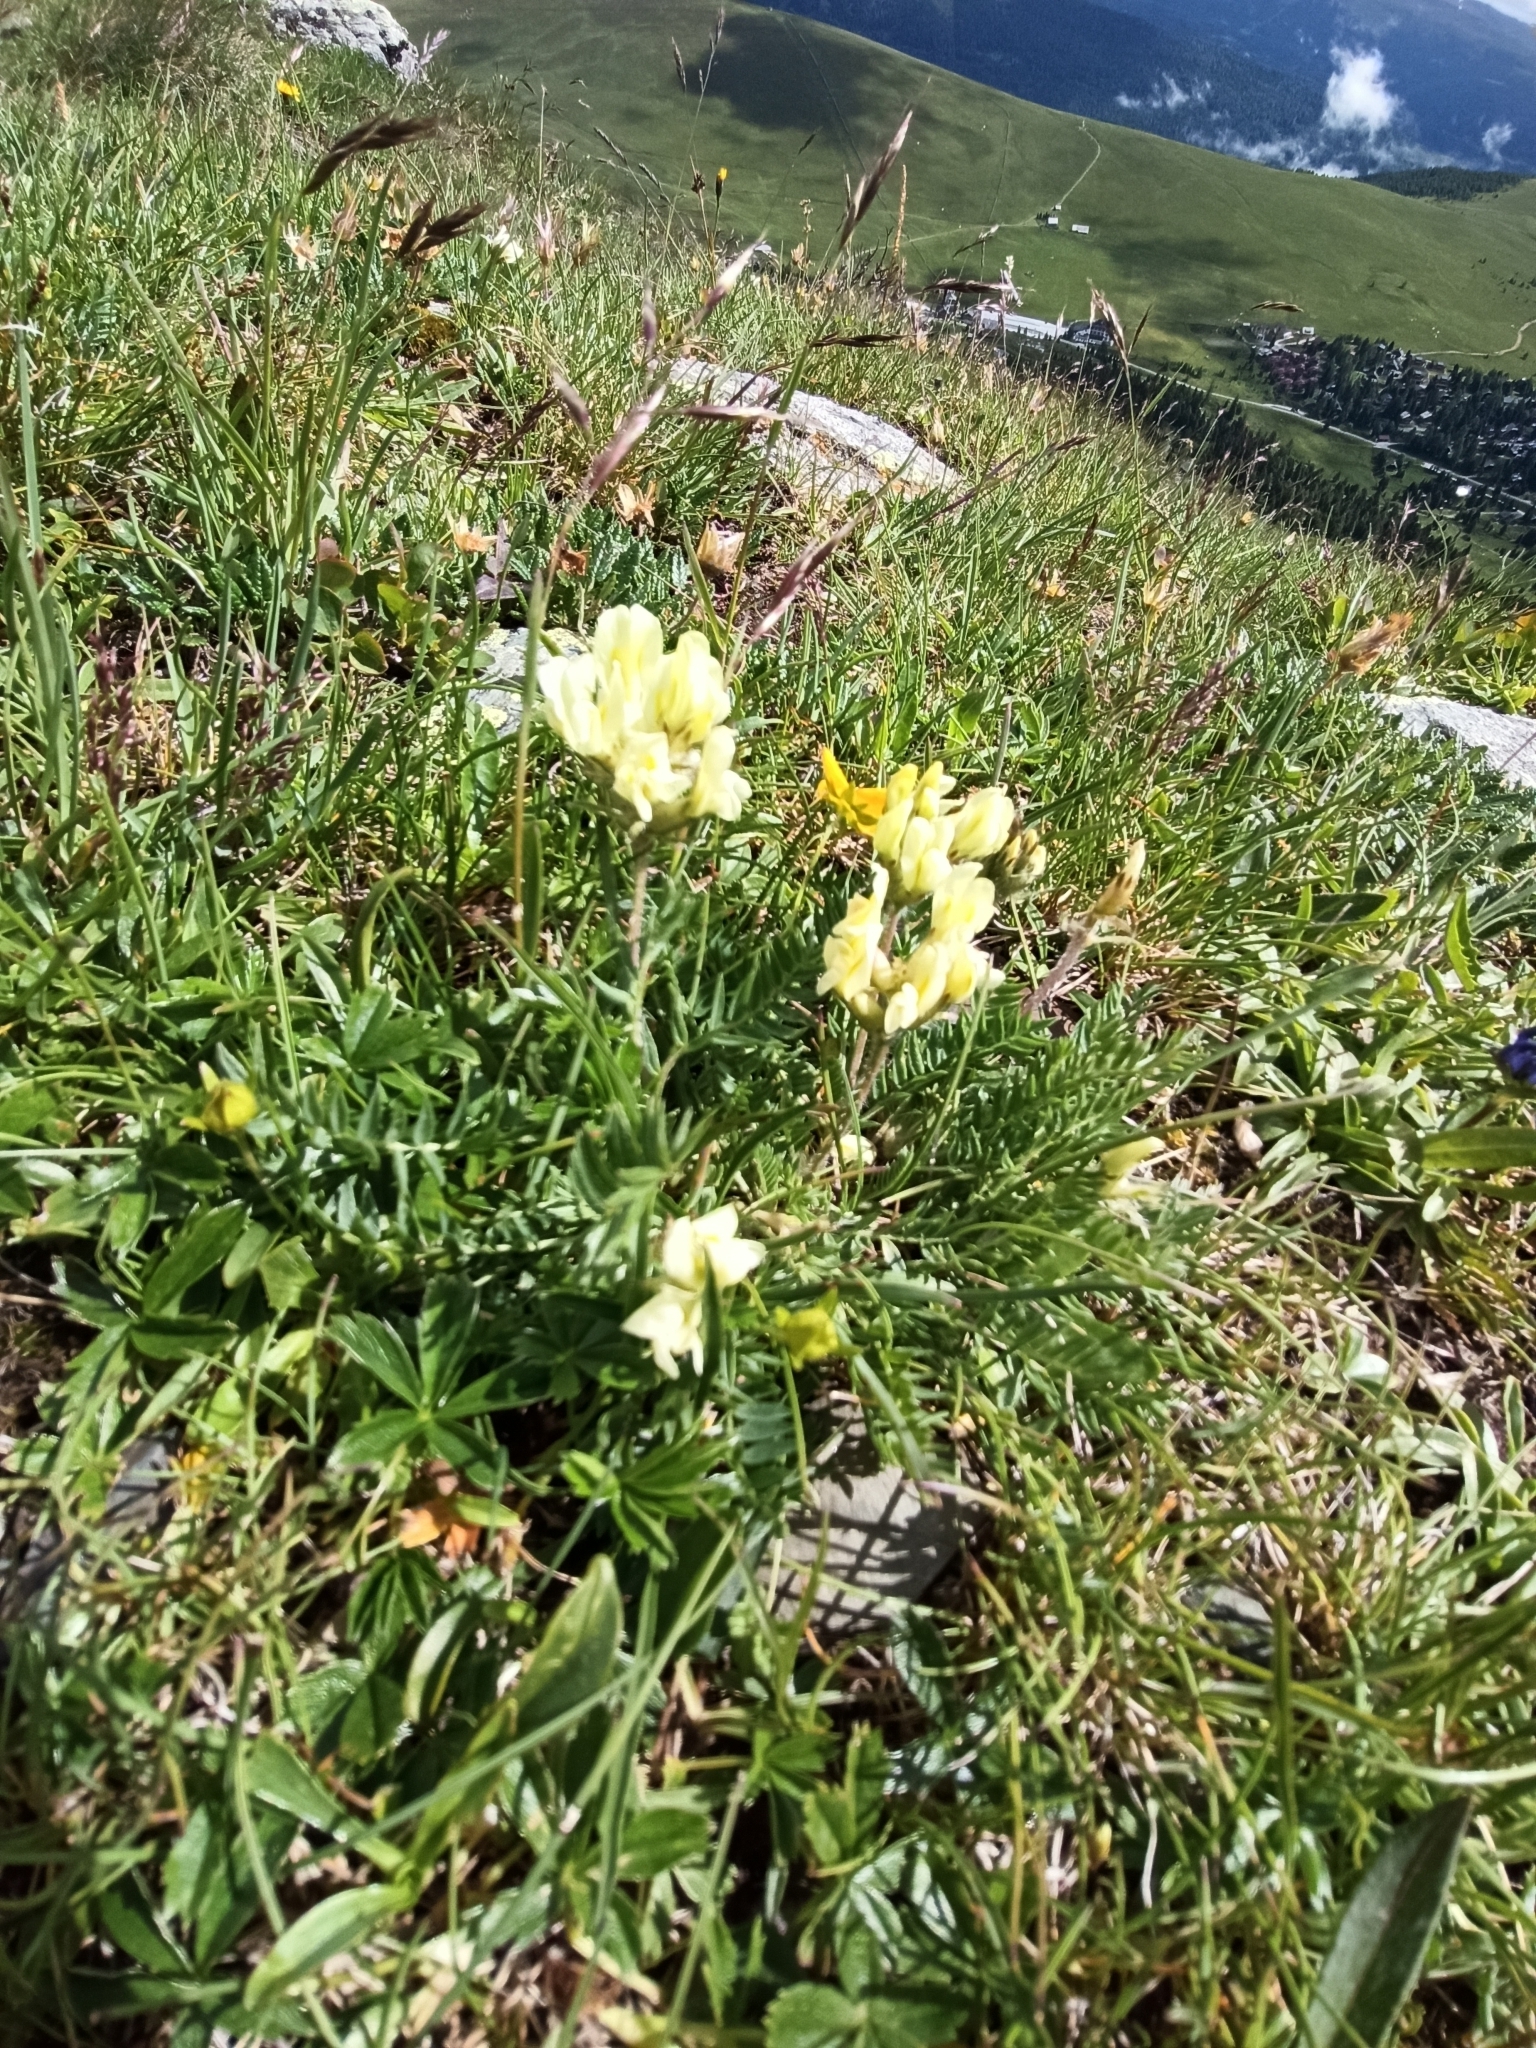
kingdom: Plantae
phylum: Tracheophyta
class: Magnoliopsida
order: Fabales
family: Fabaceae
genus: Oxytropis
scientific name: Oxytropis campestris
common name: Field locoweed
